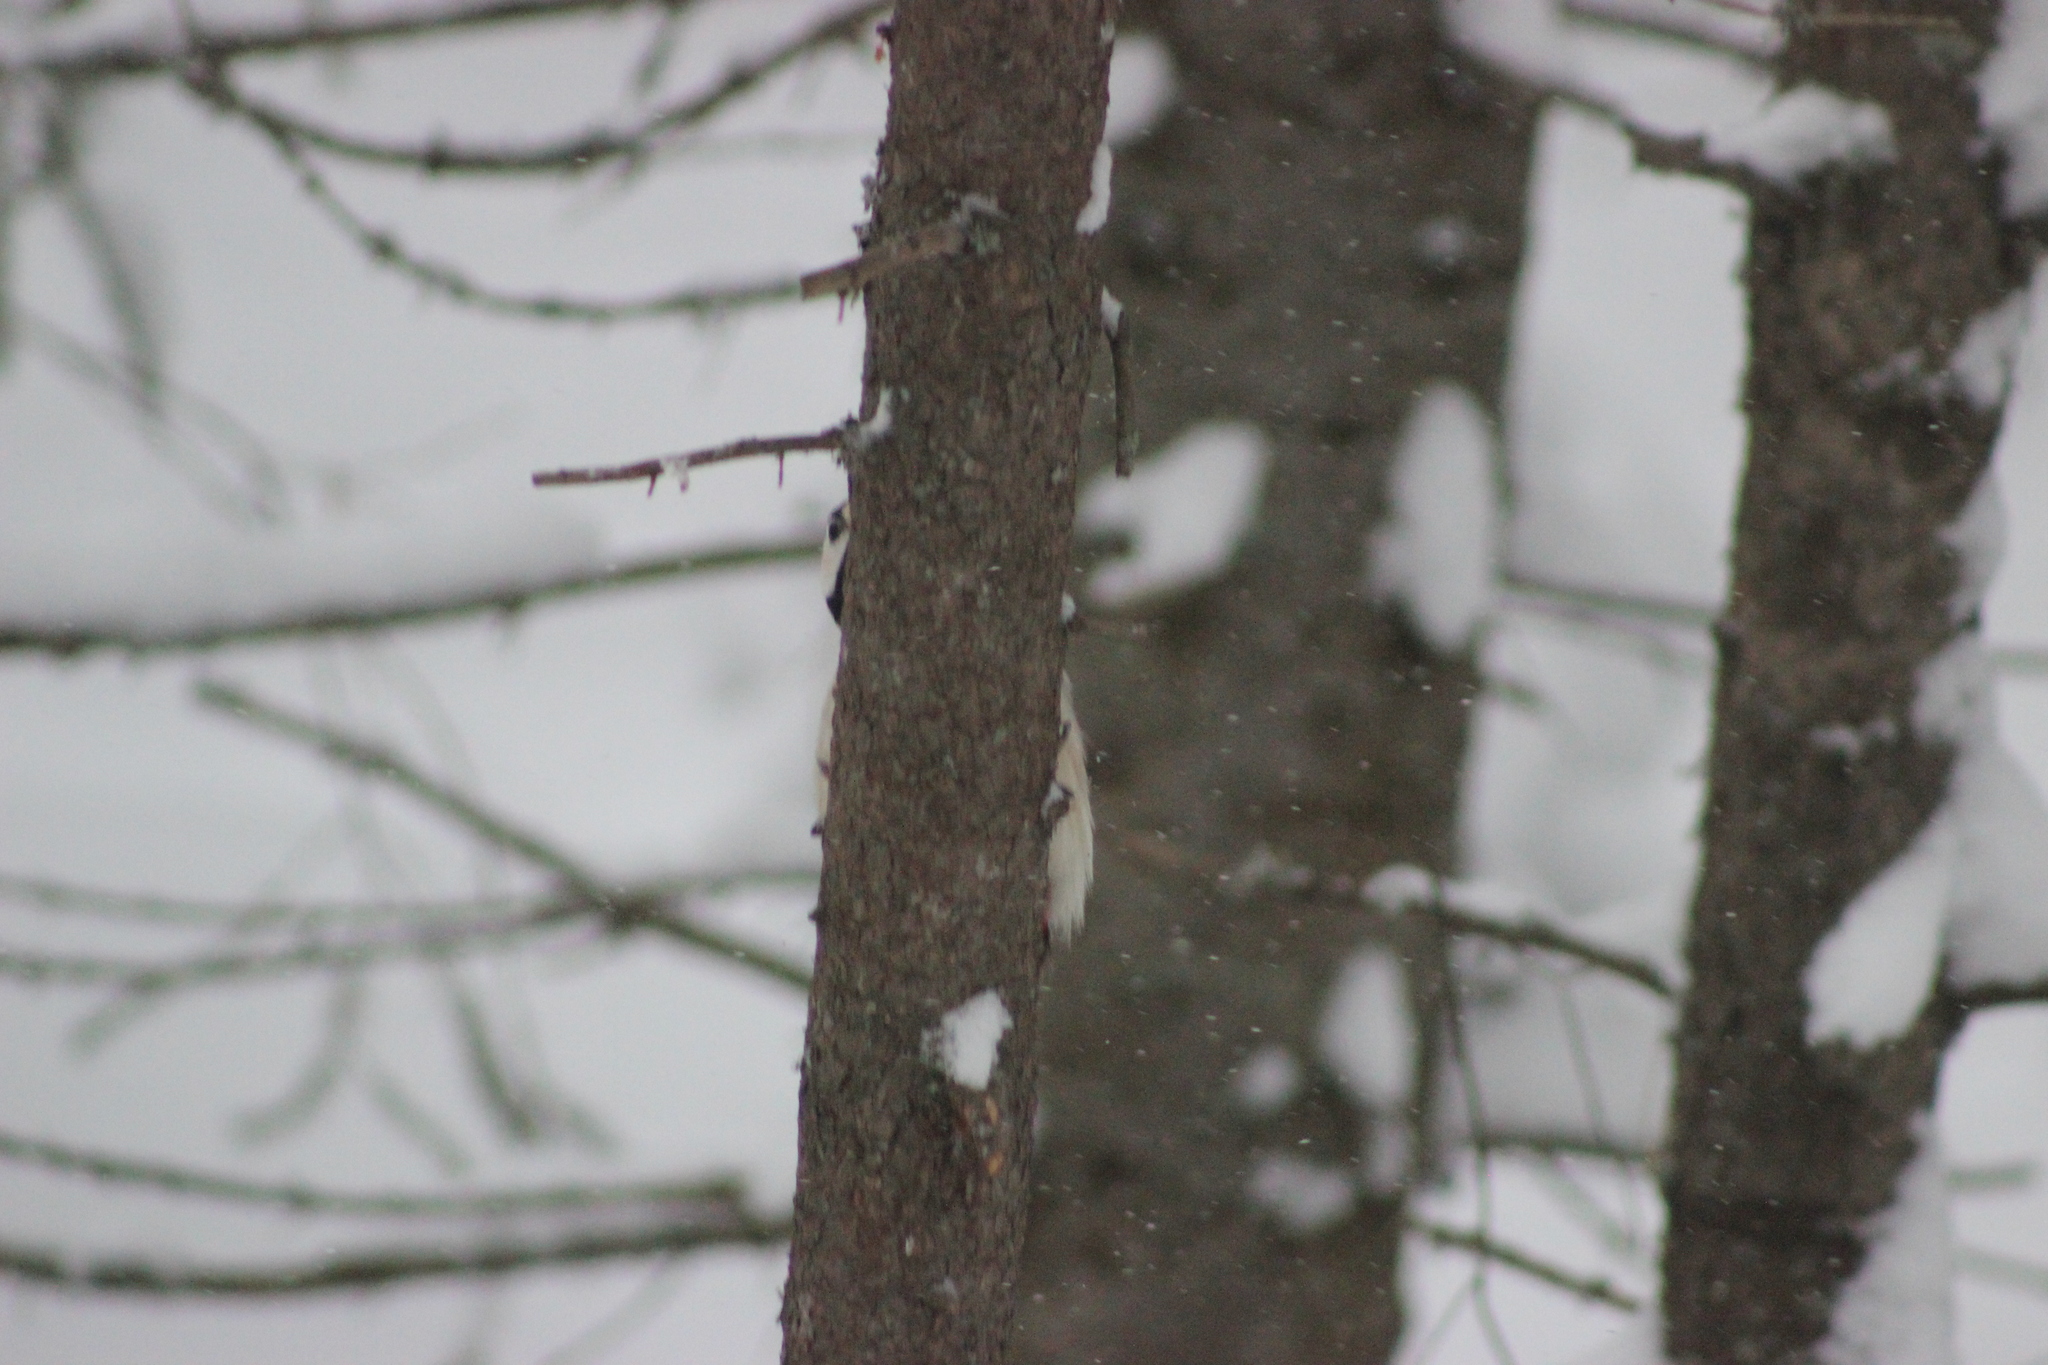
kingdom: Animalia
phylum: Chordata
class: Aves
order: Piciformes
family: Picidae
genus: Dendrocopos
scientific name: Dendrocopos major
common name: Great spotted woodpecker
